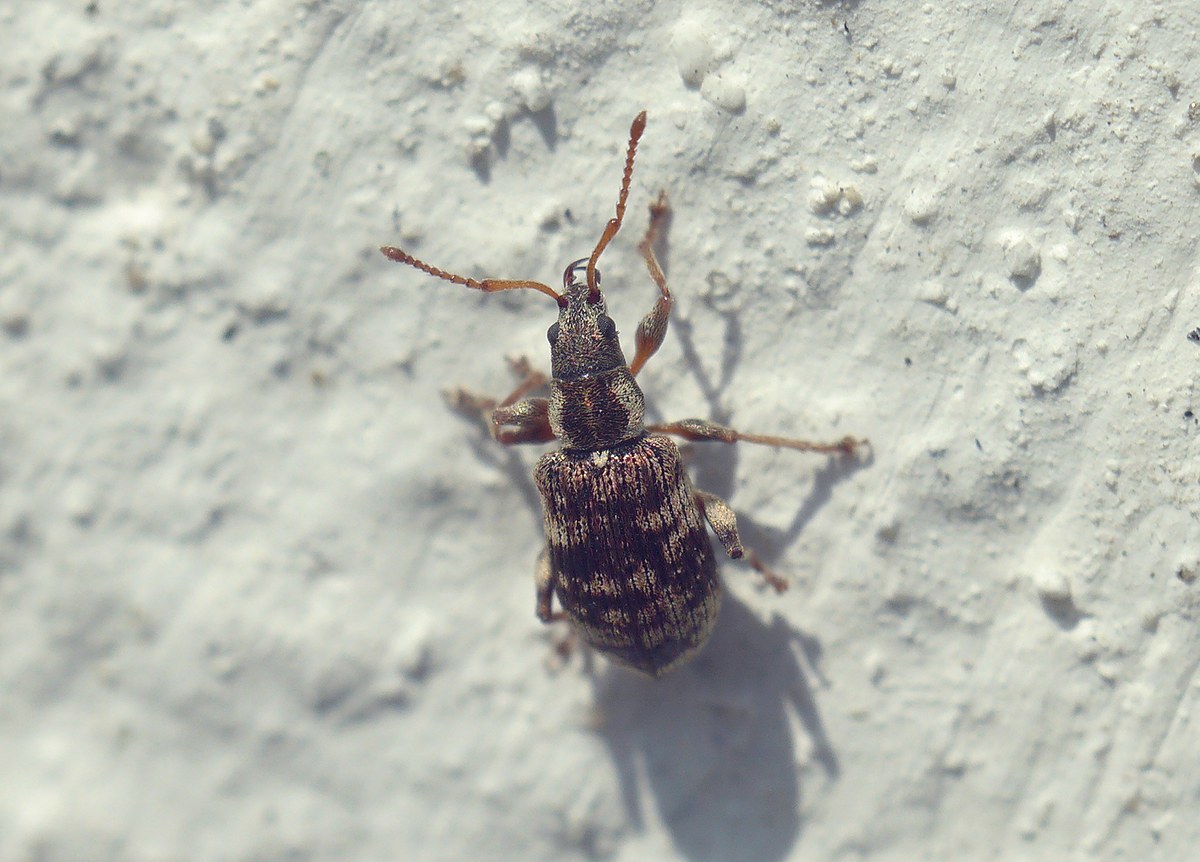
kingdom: Animalia
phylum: Arthropoda
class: Insecta
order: Coleoptera
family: Curculionidae
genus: Oedecnemidius
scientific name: Oedecnemidius varius
